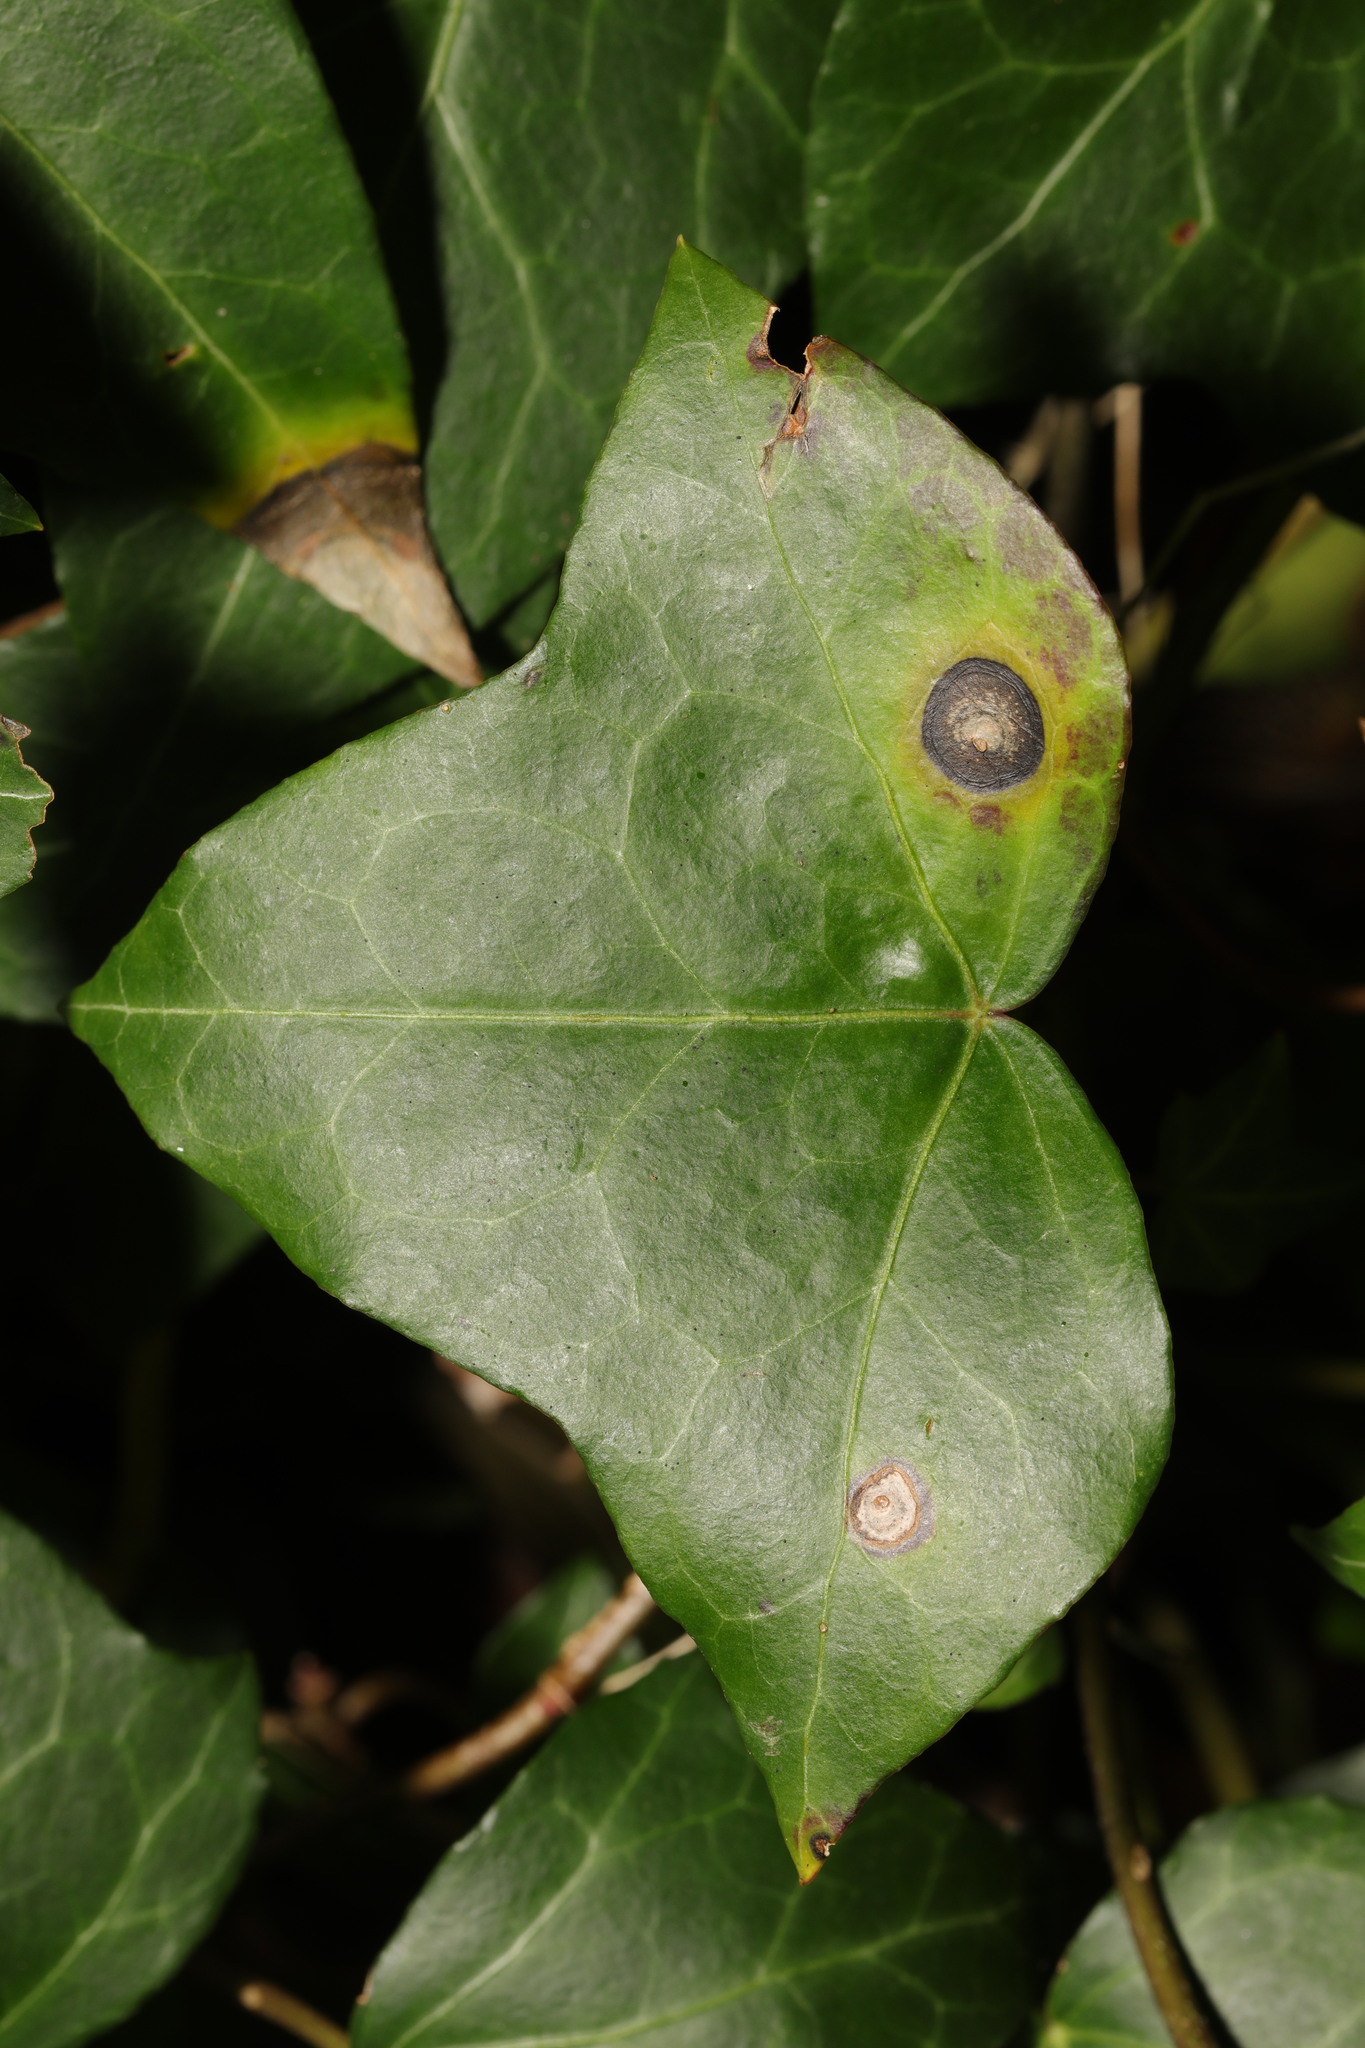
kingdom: Fungi
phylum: Ascomycota
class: Dothideomycetes
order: Pleosporales
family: Didymellaceae
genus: Boeremia
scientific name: Boeremia hedericola
